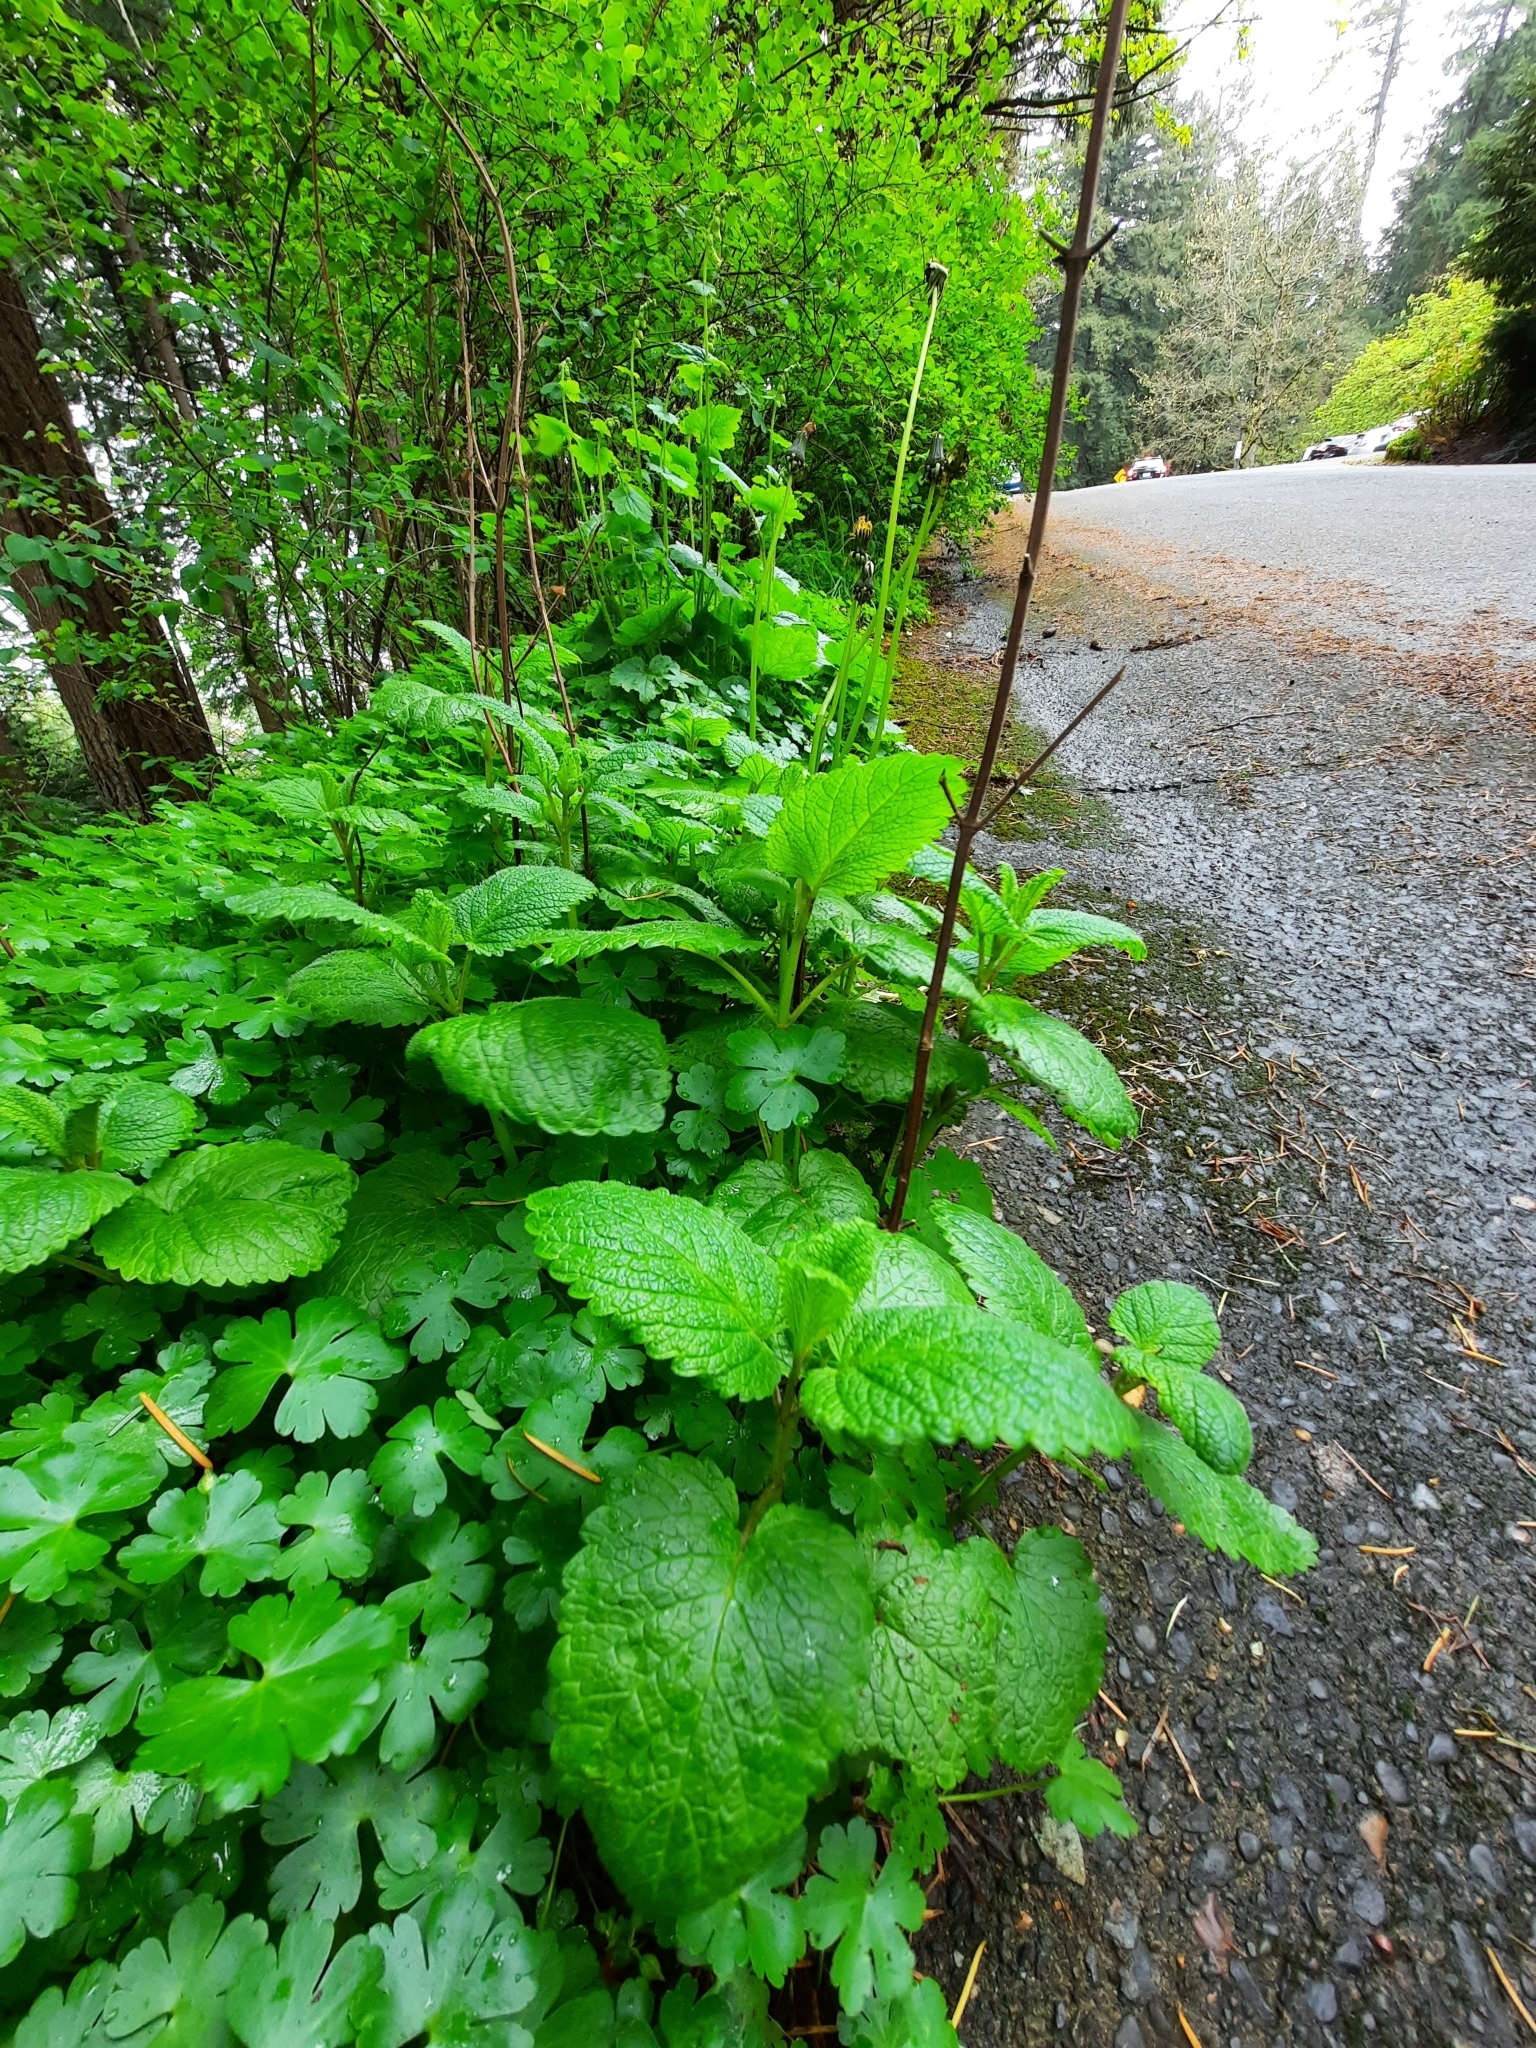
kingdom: Plantae
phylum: Tracheophyta
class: Magnoliopsida
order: Lamiales
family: Lamiaceae
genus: Melissa
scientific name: Melissa officinalis
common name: Balm
